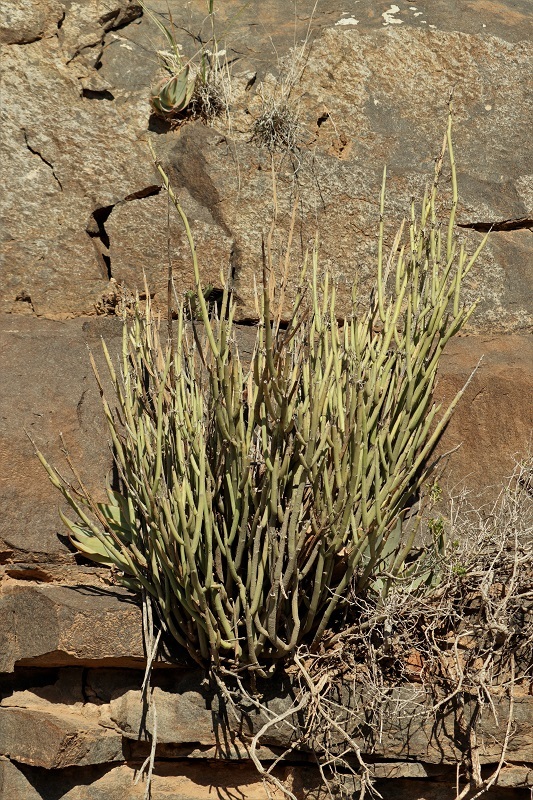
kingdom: Plantae
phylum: Tracheophyta
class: Magnoliopsida
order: Malpighiales
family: Euphorbiaceae
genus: Euphorbia
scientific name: Euphorbia mauritanica
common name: Jackal's-food
